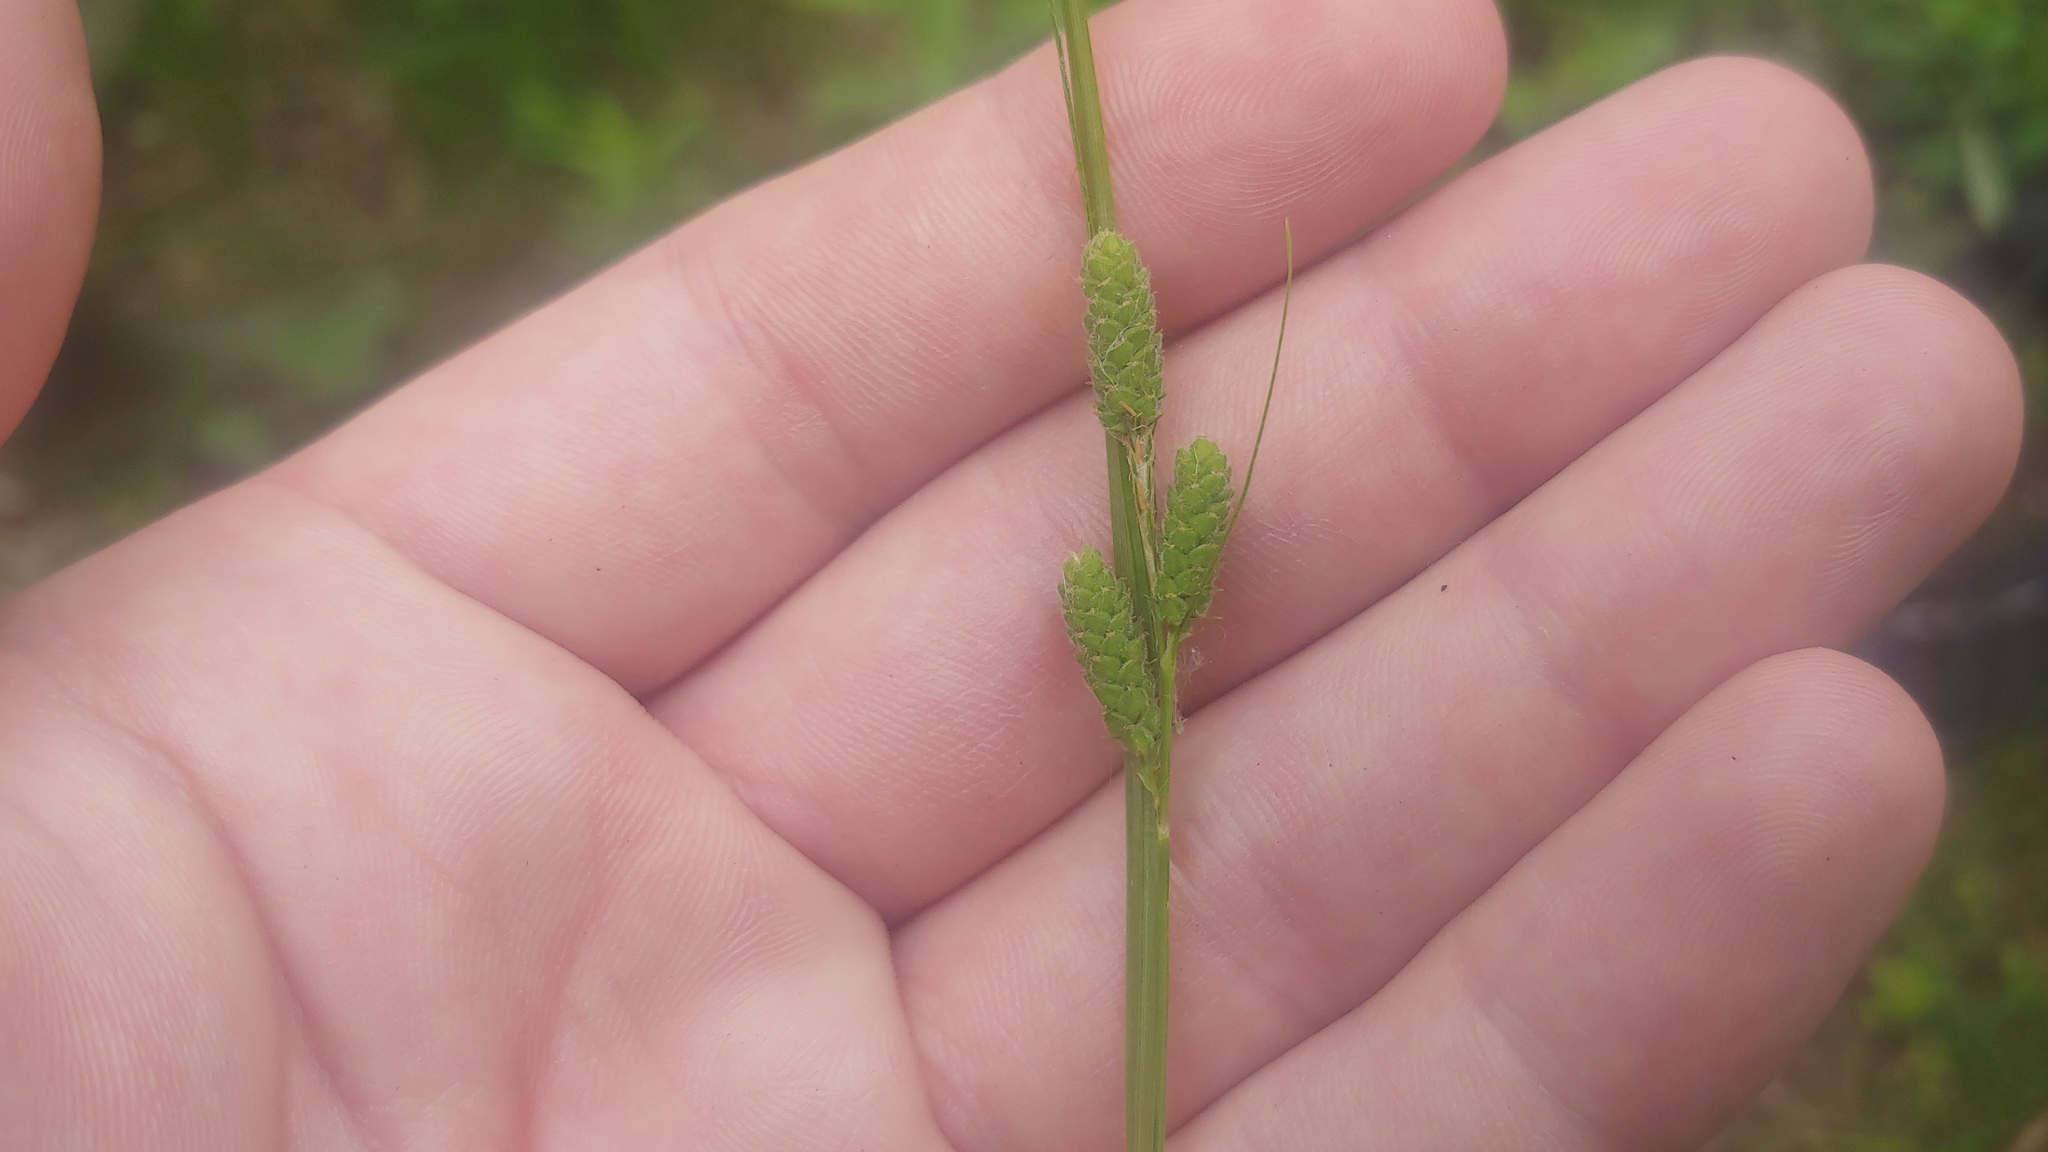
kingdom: Plantae
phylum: Tracheophyta
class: Liliopsida
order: Poales
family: Cyperaceae
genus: Carex
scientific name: Carex swanii
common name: Downy green sedge
